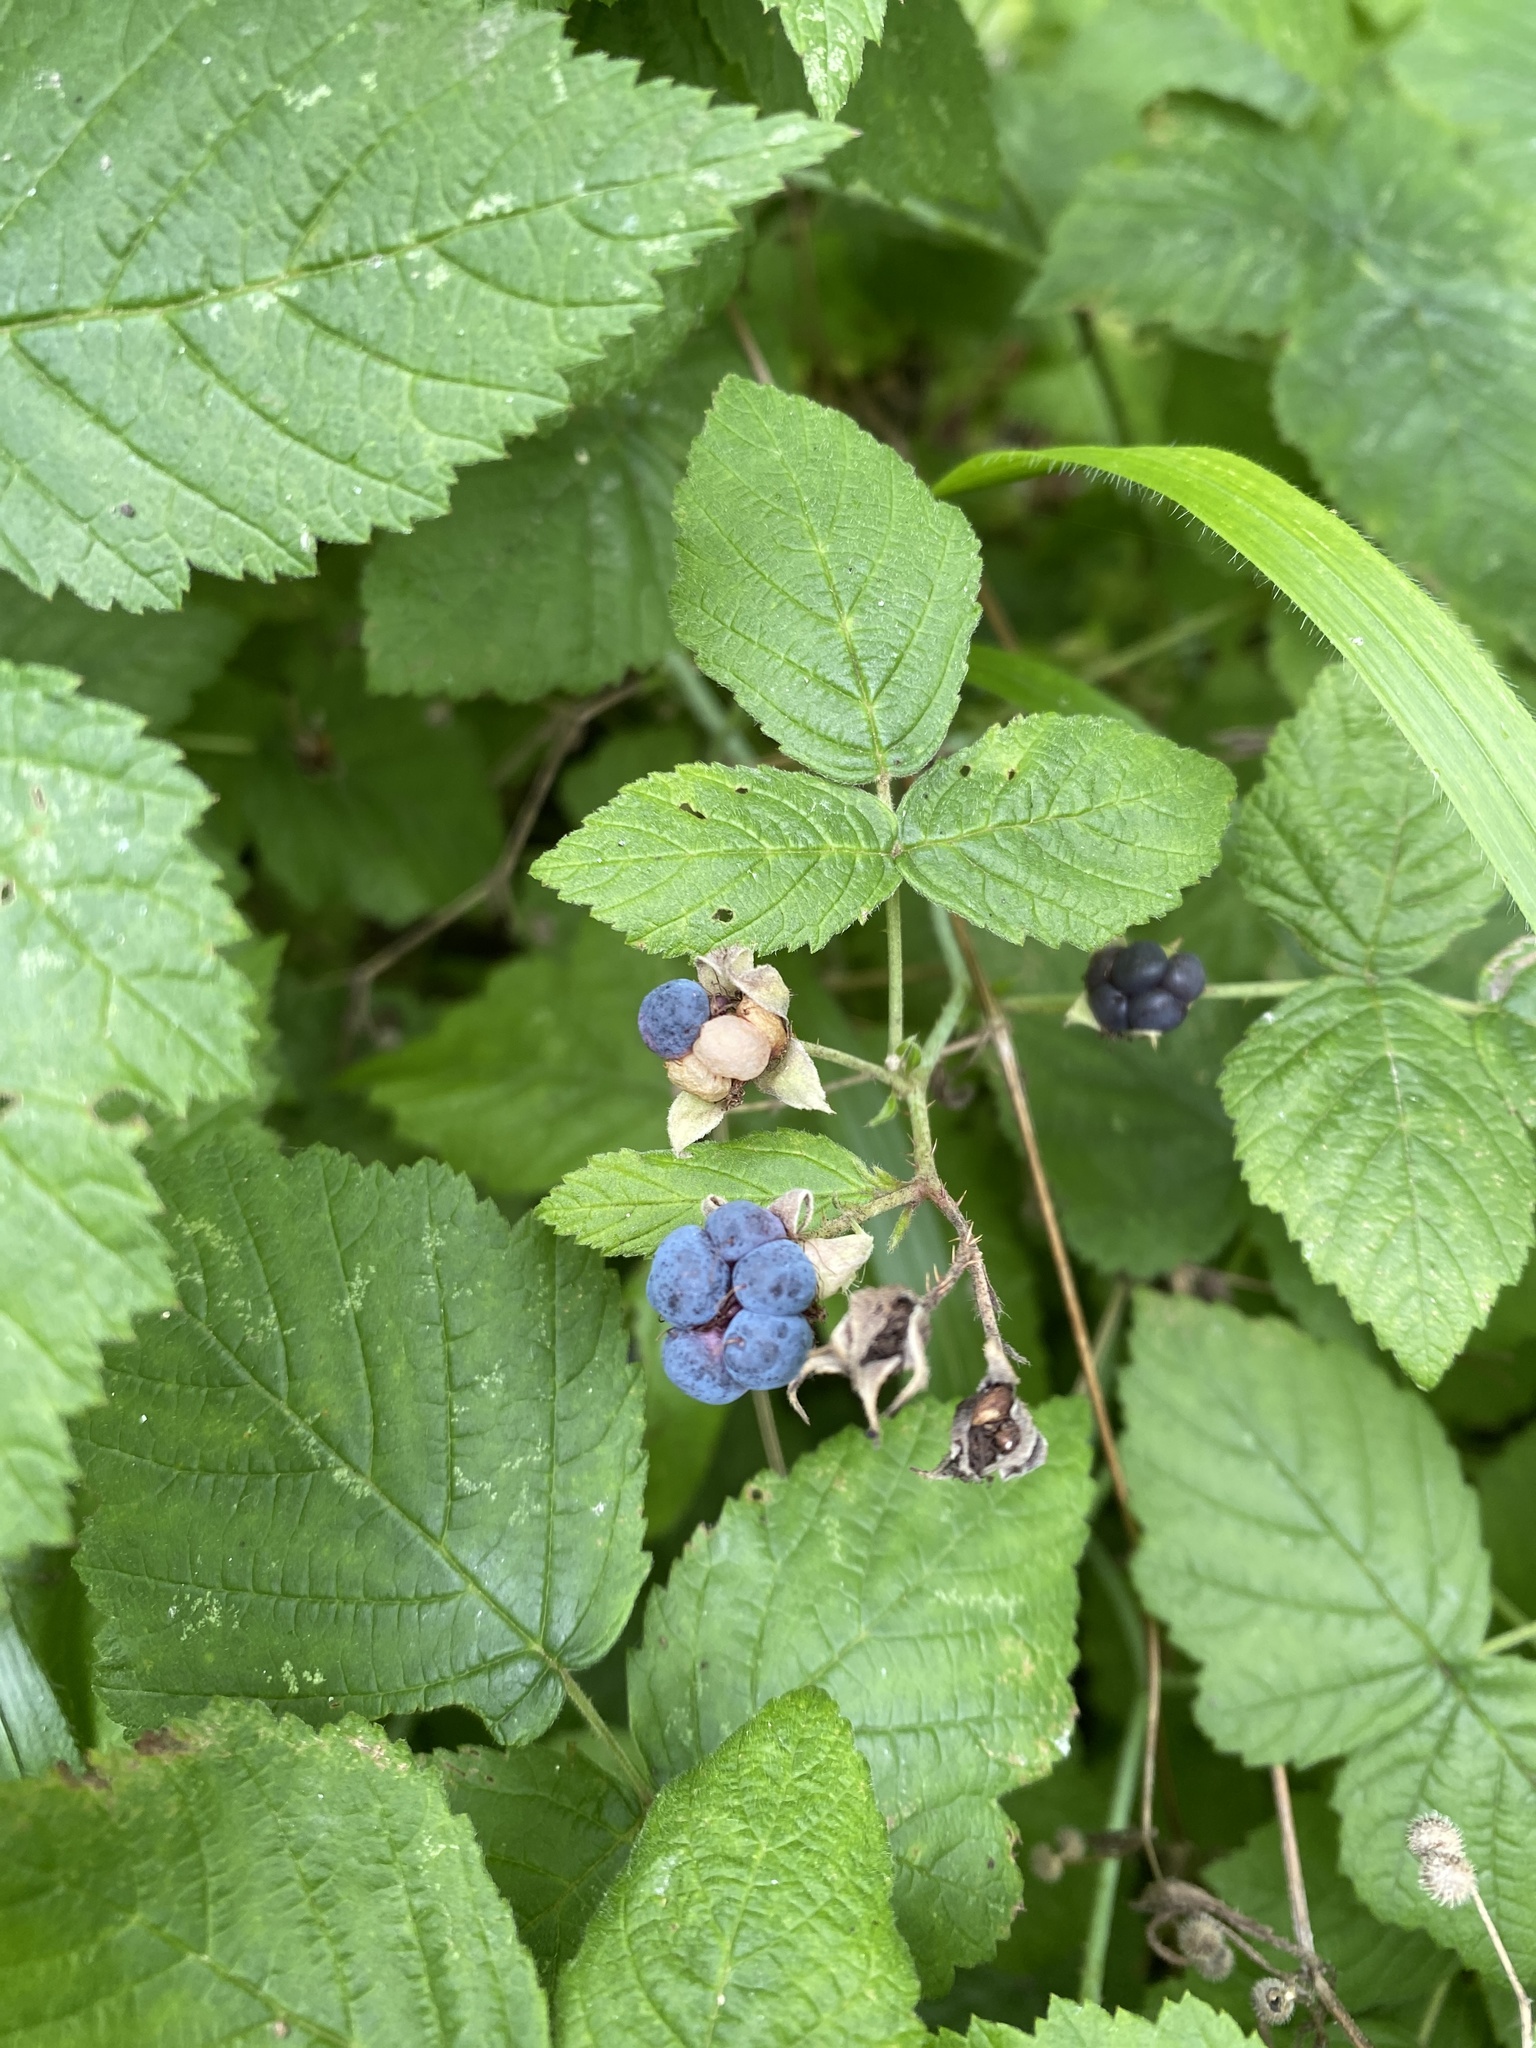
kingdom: Plantae
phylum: Tracheophyta
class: Magnoliopsida
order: Rosales
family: Rosaceae
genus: Rubus
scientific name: Rubus caesius
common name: Dewberry
